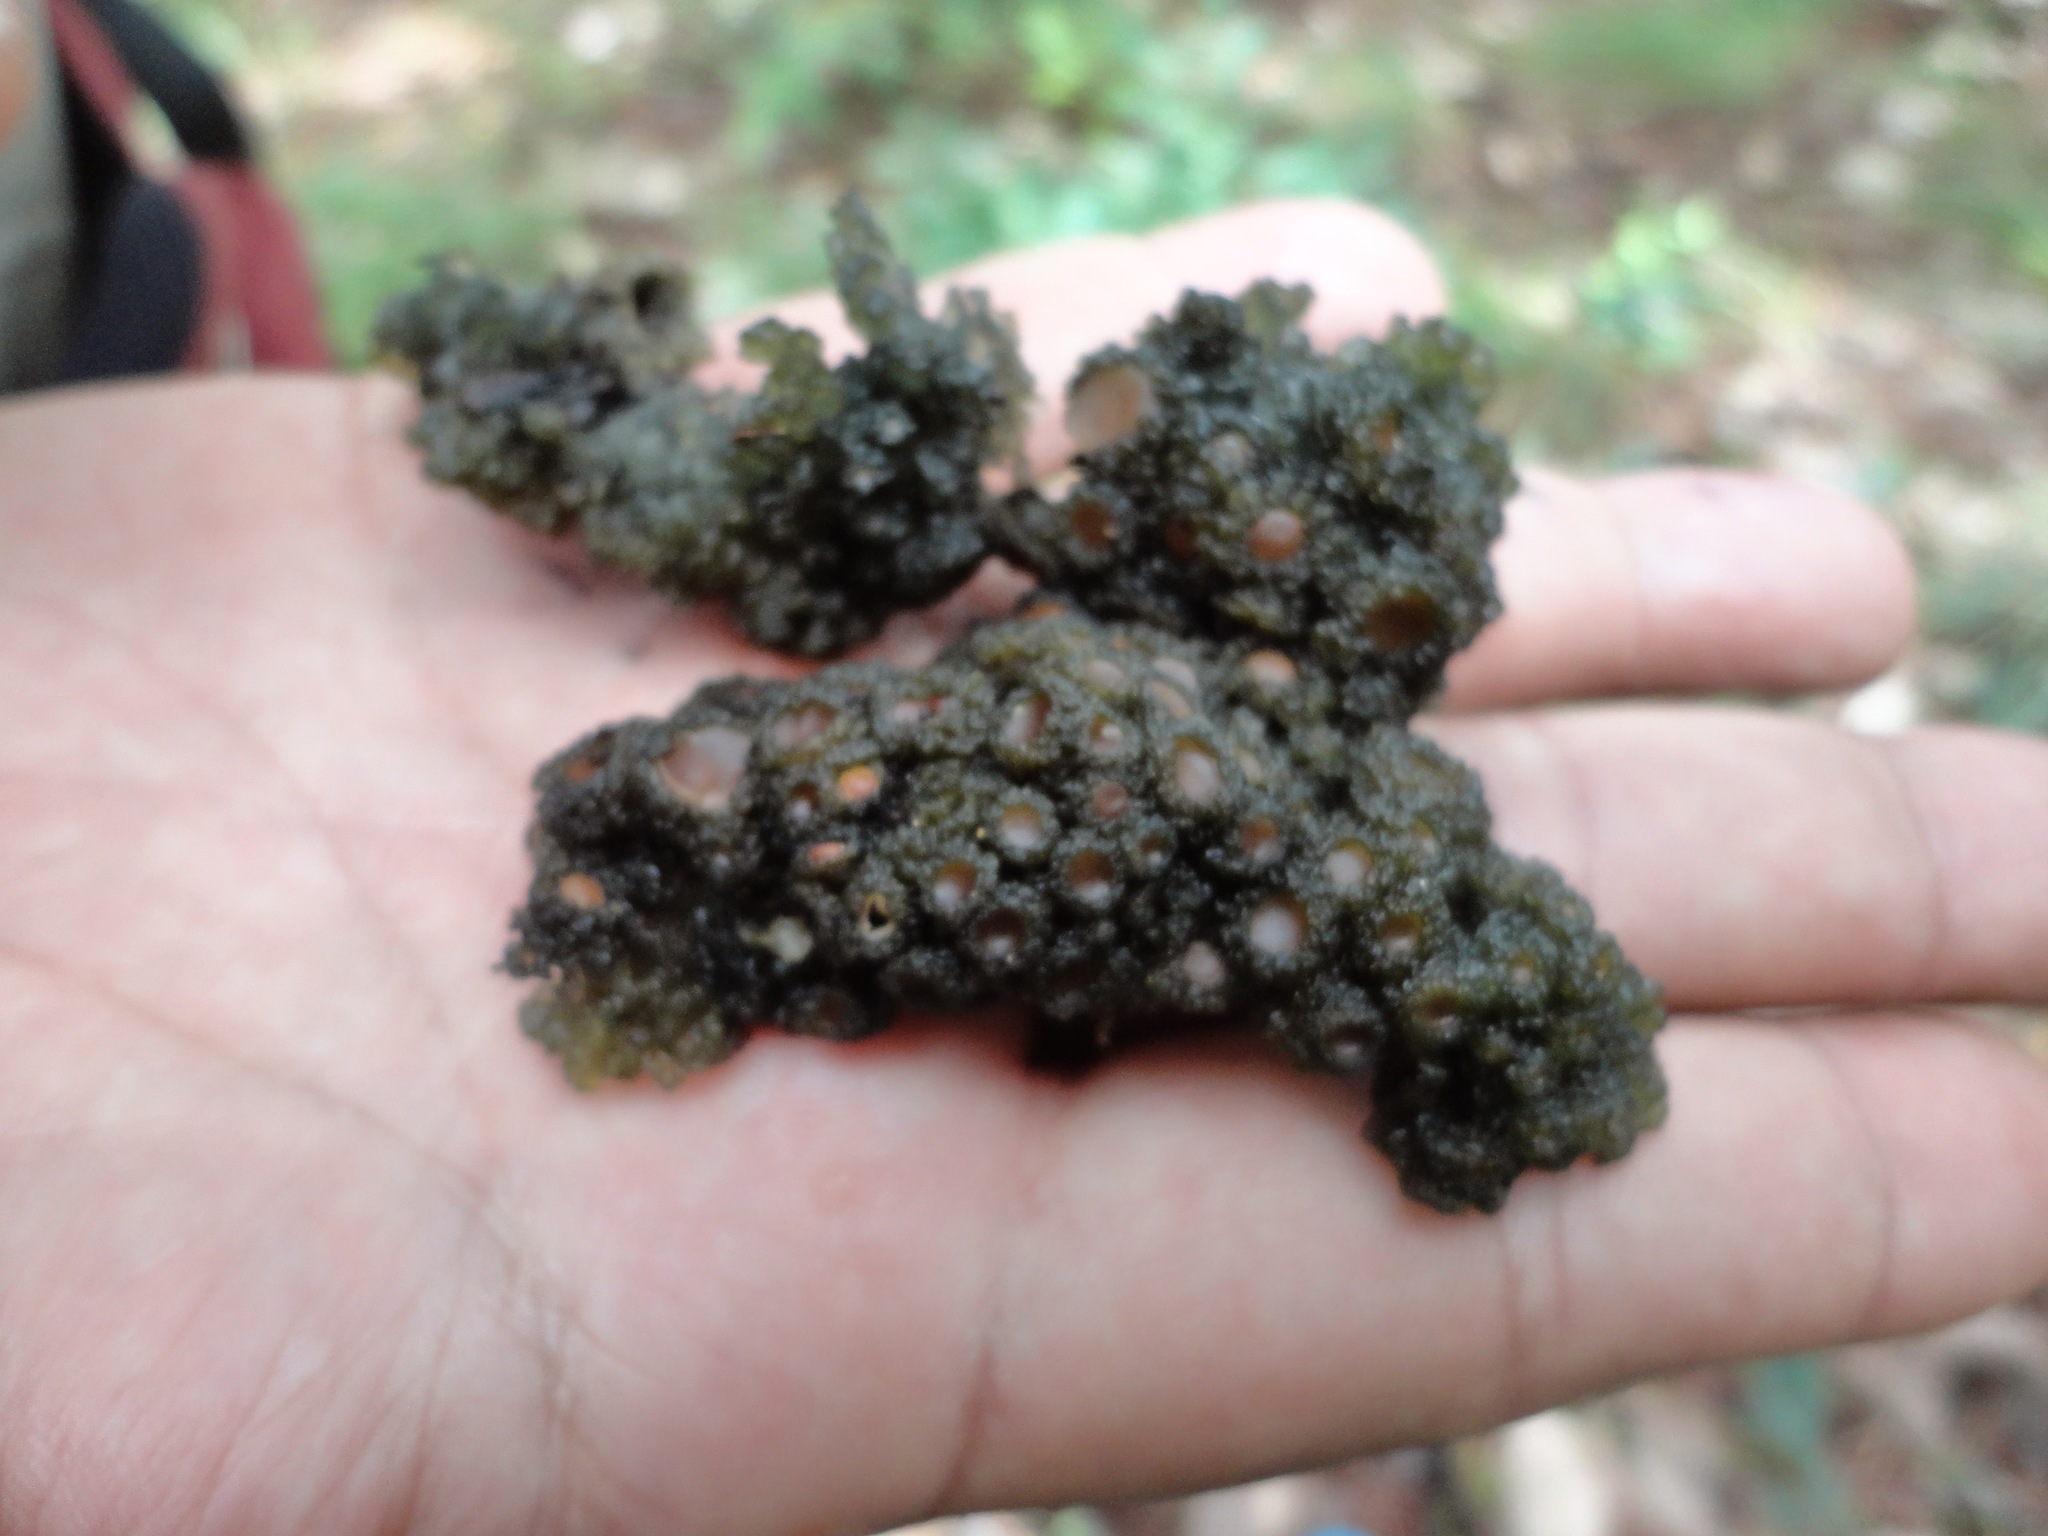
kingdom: Fungi
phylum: Ascomycota
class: Lecanoromycetes
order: Peltigerales
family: Collemataceae
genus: Leptogium
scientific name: Leptogium phyllocarpum
